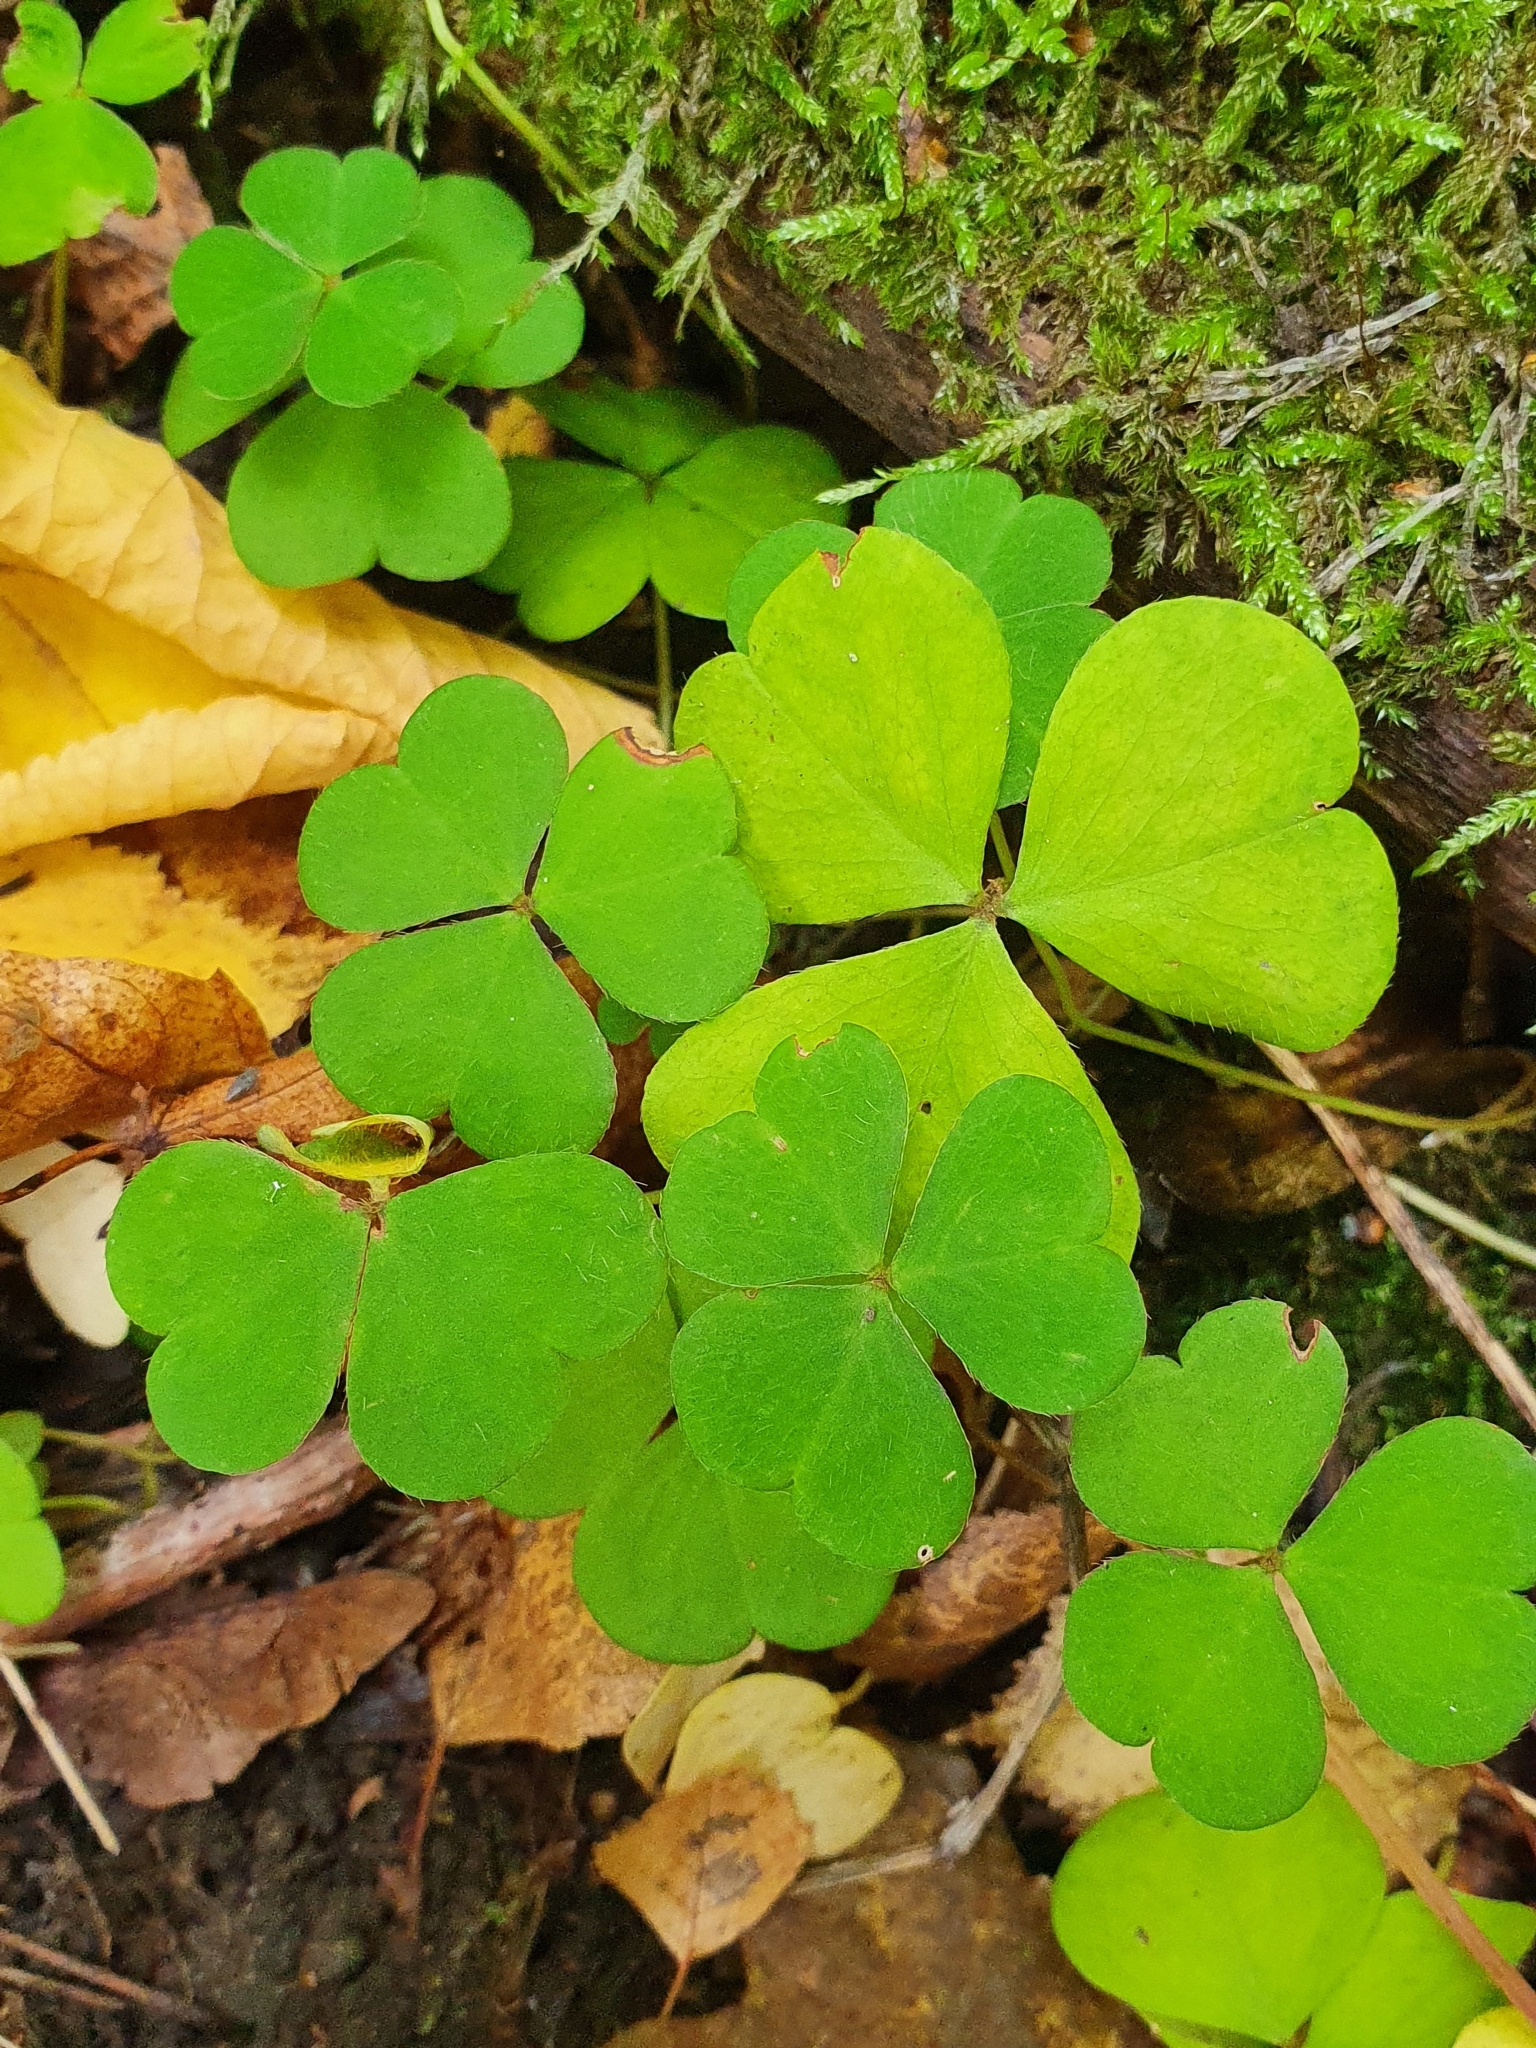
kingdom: Plantae
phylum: Tracheophyta
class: Magnoliopsida
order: Oxalidales
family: Oxalidaceae
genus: Oxalis
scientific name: Oxalis acetosella
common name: Wood-sorrel
